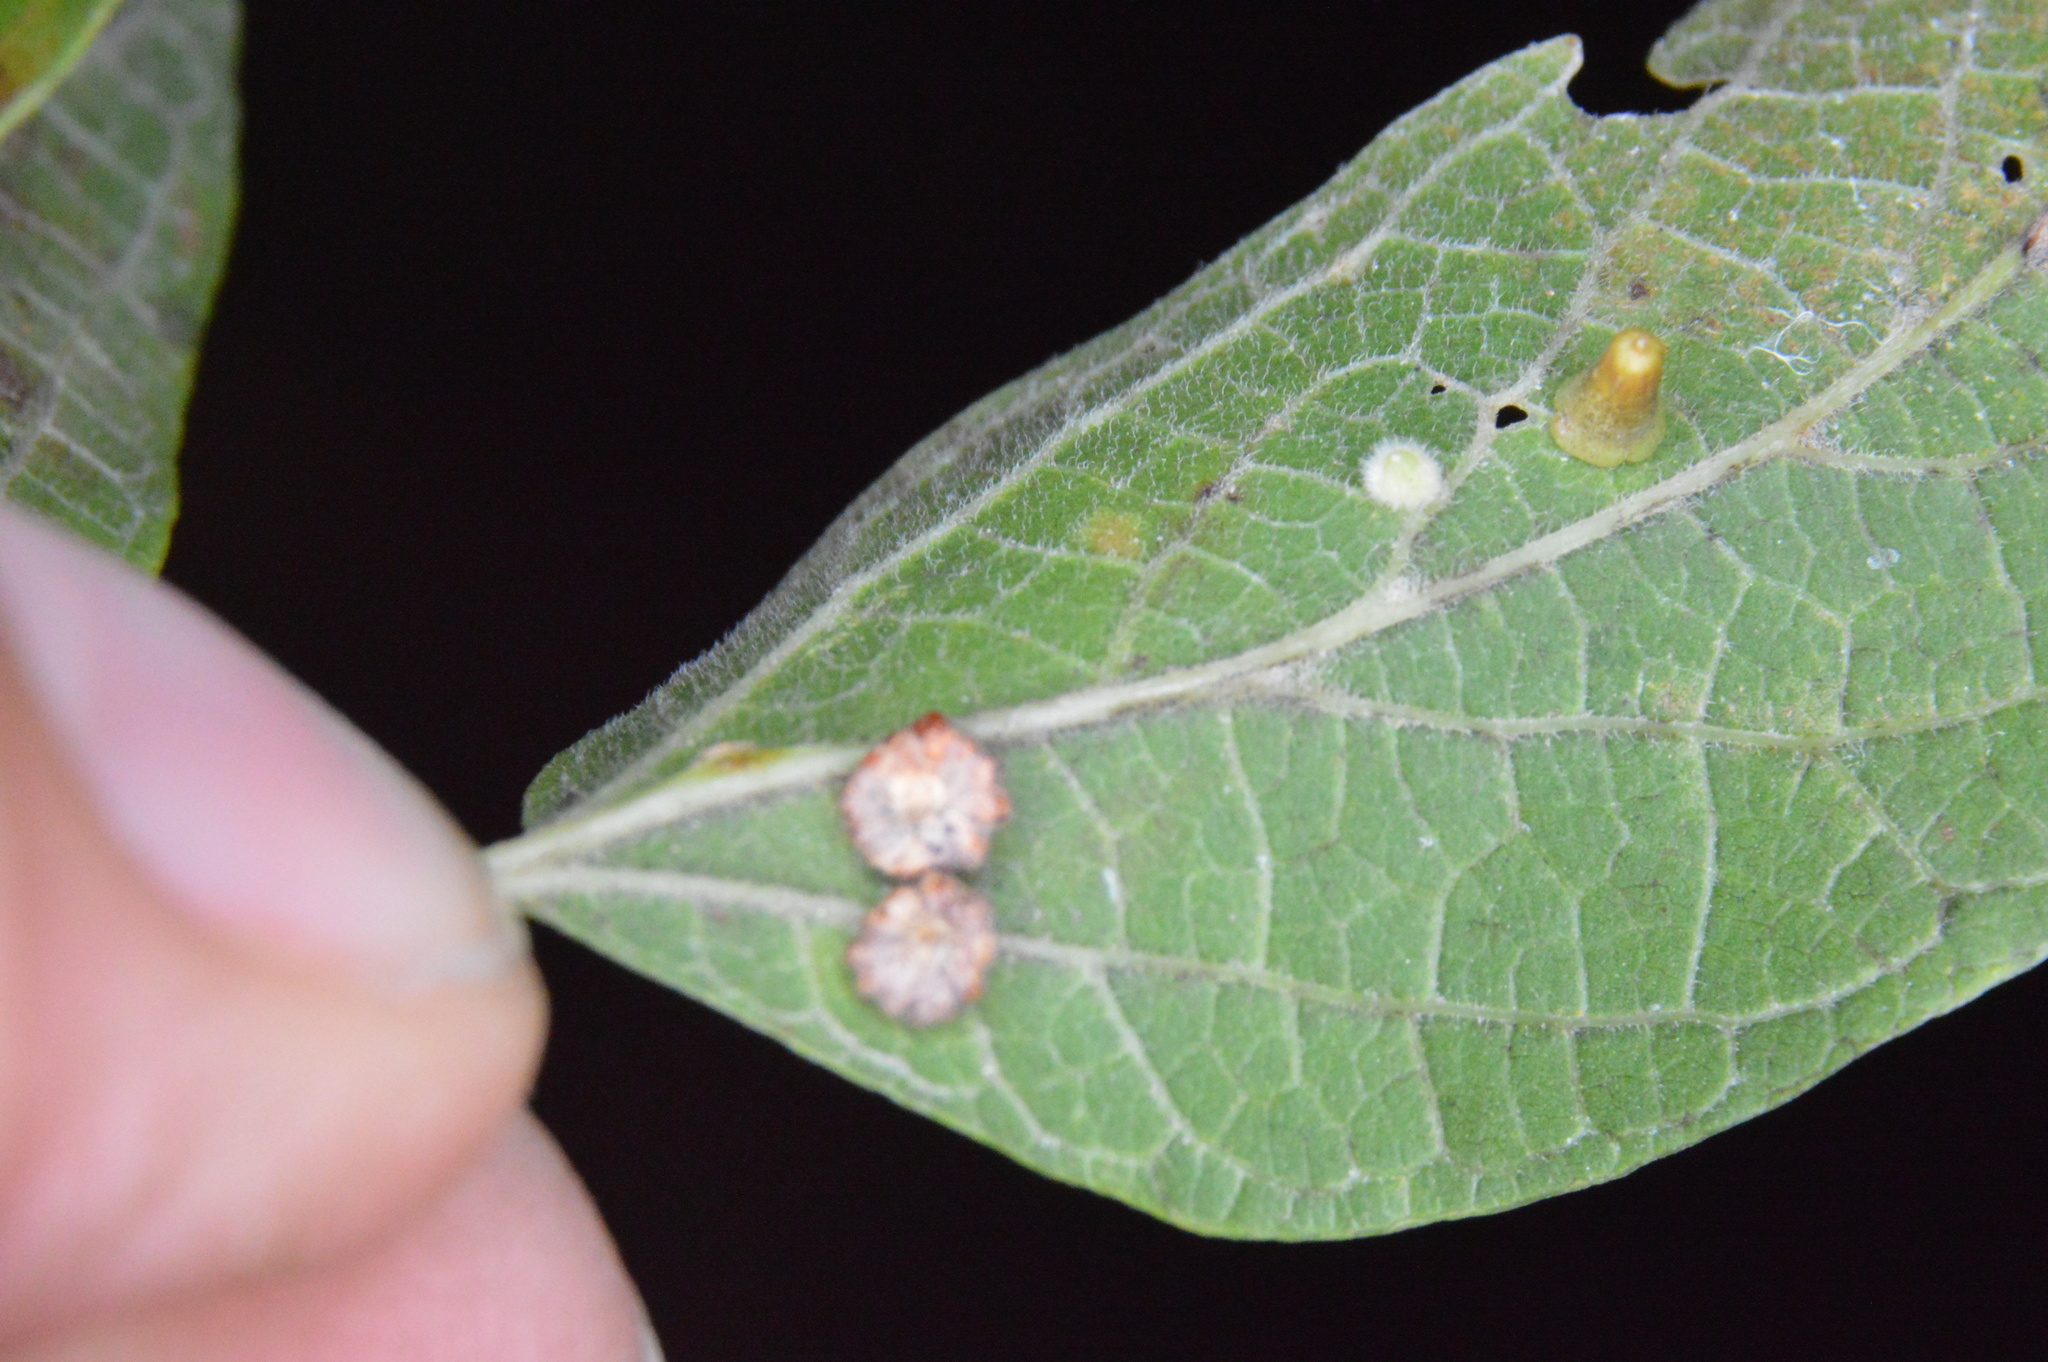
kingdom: Animalia
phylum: Arthropoda
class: Insecta
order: Diptera
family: Cecidomyiidae
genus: Celticecis
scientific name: Celticecis capsularis
